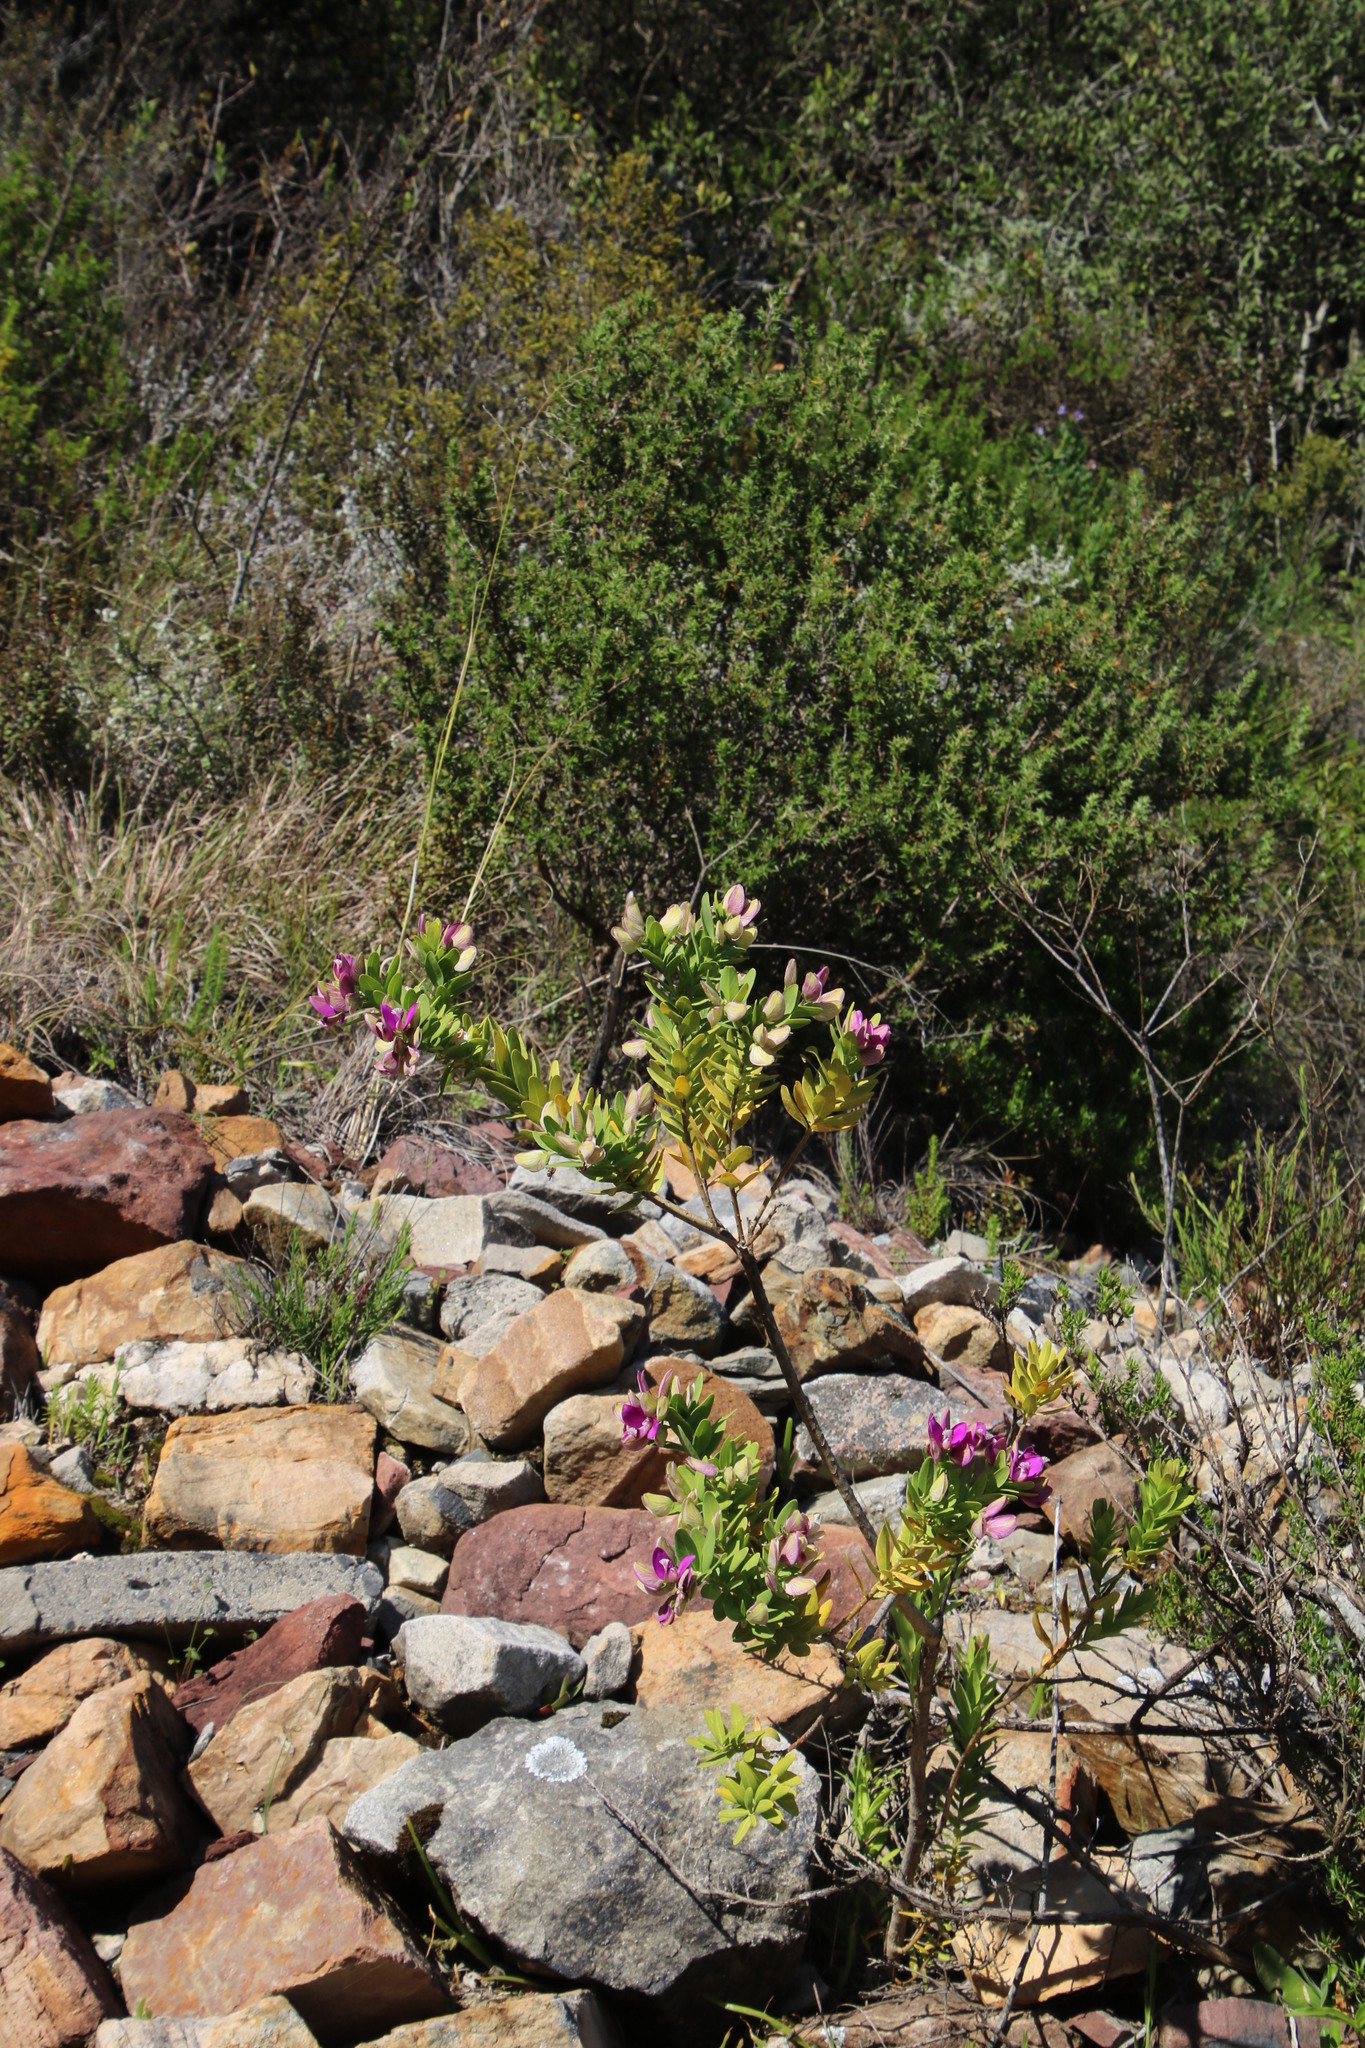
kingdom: Plantae
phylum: Tracheophyta
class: Magnoliopsida
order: Fabales
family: Polygalaceae
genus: Polygala
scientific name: Polygala myrtifolia
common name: Myrtle-leaf milkwort
